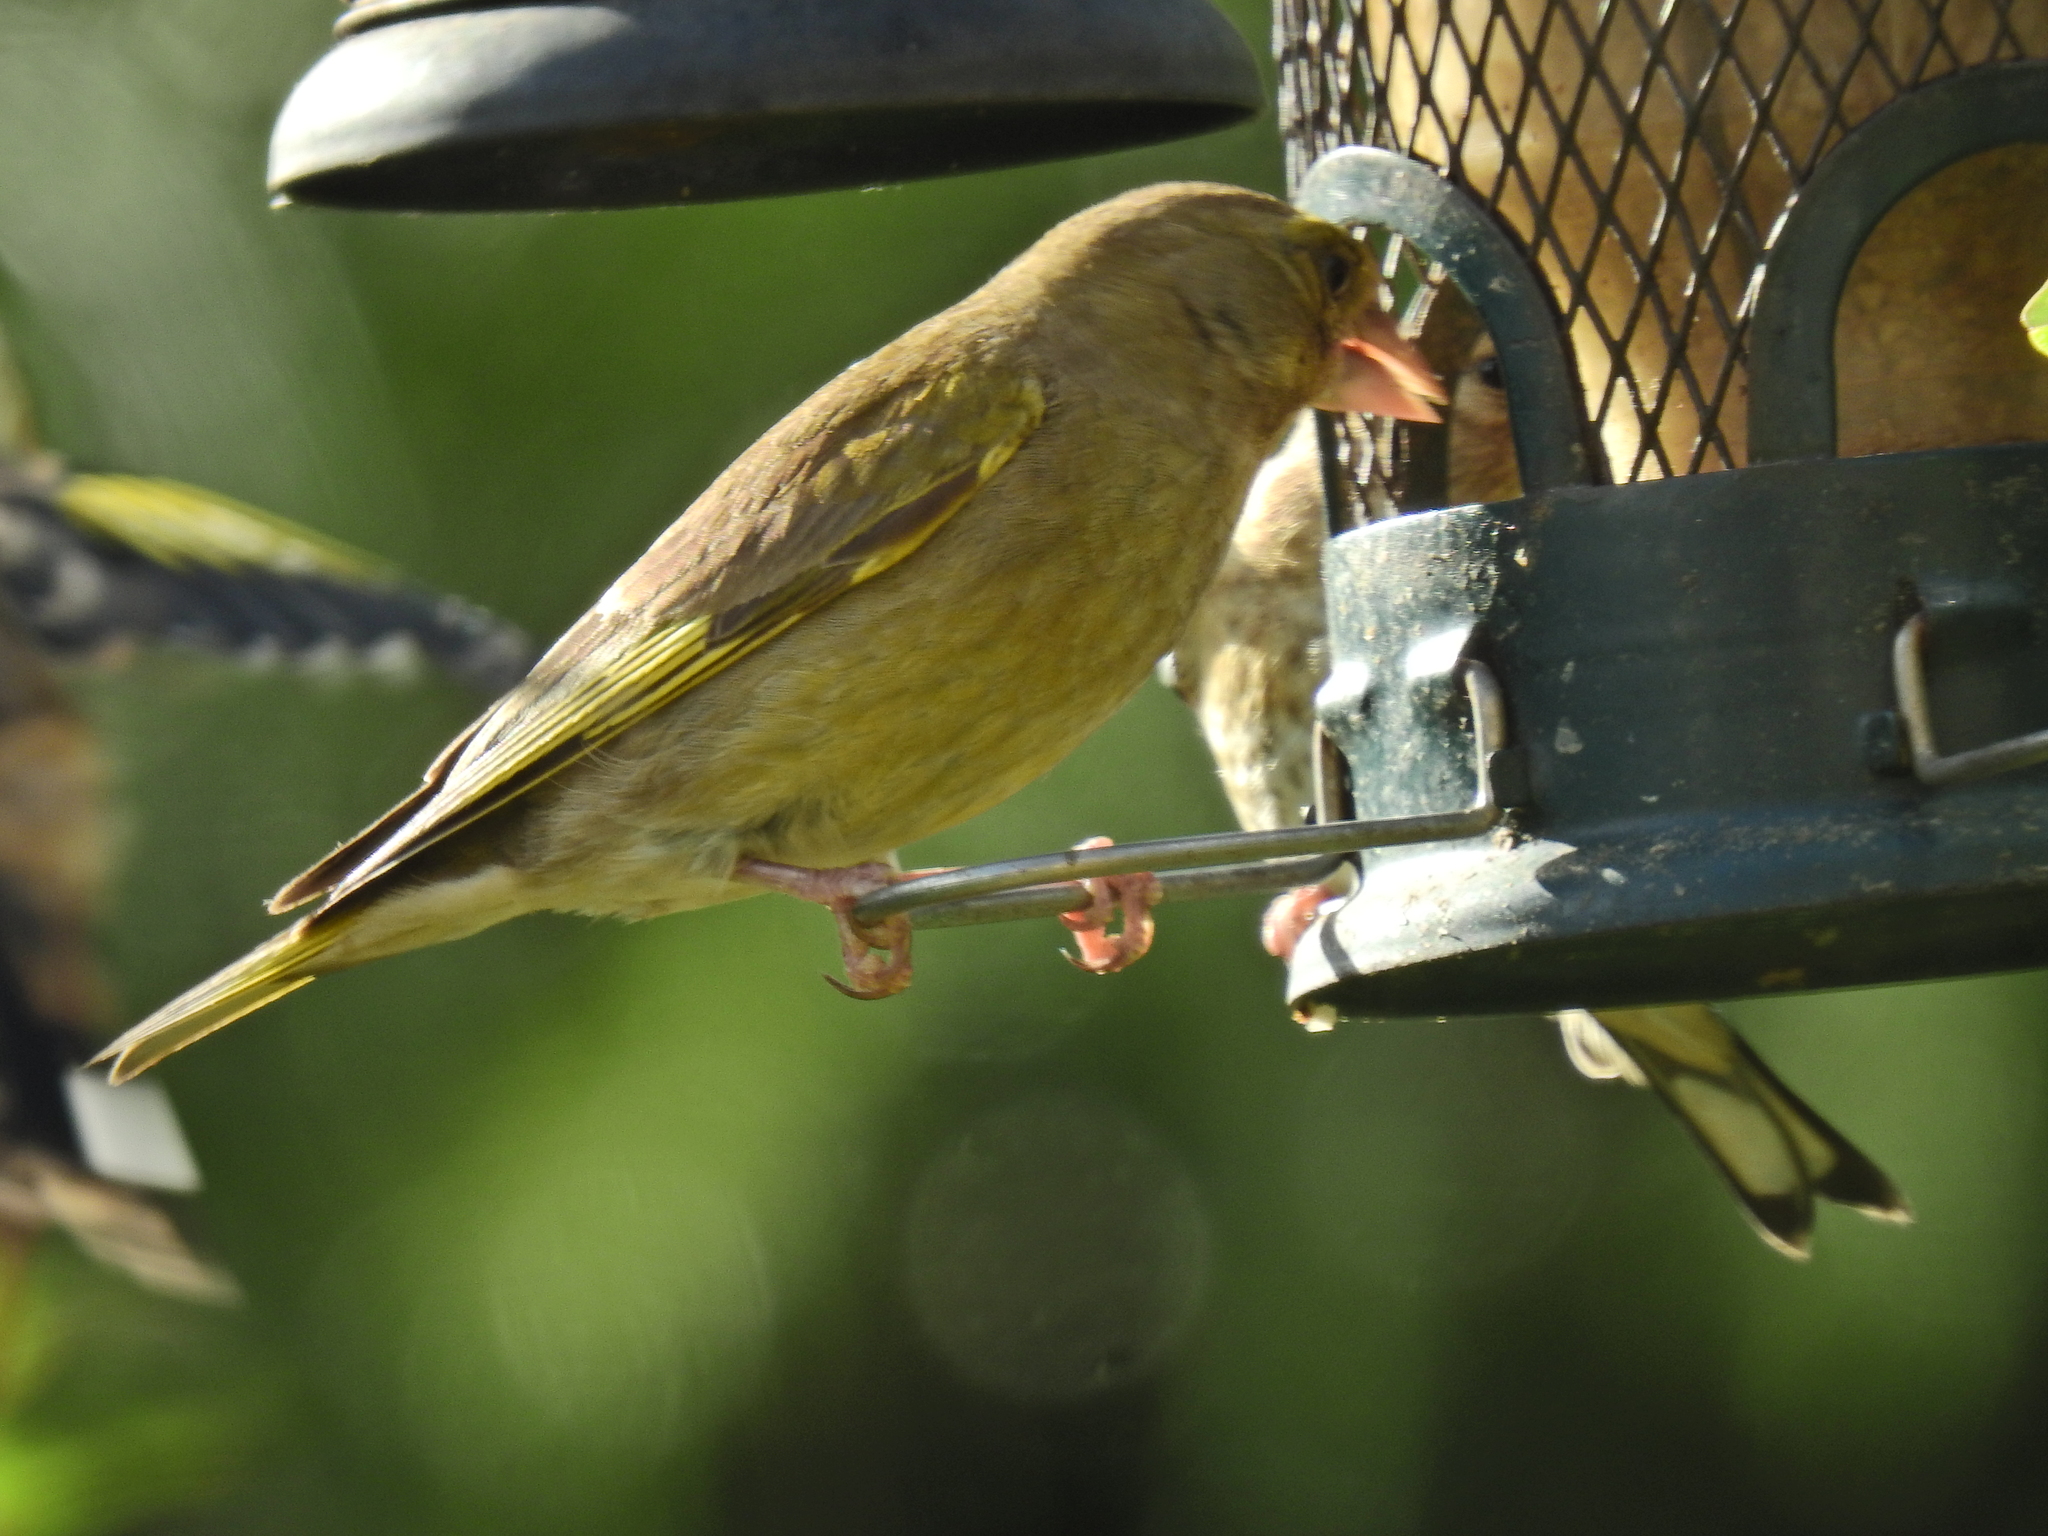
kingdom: Plantae
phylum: Tracheophyta
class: Liliopsida
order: Poales
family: Poaceae
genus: Chloris
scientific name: Chloris chloris
